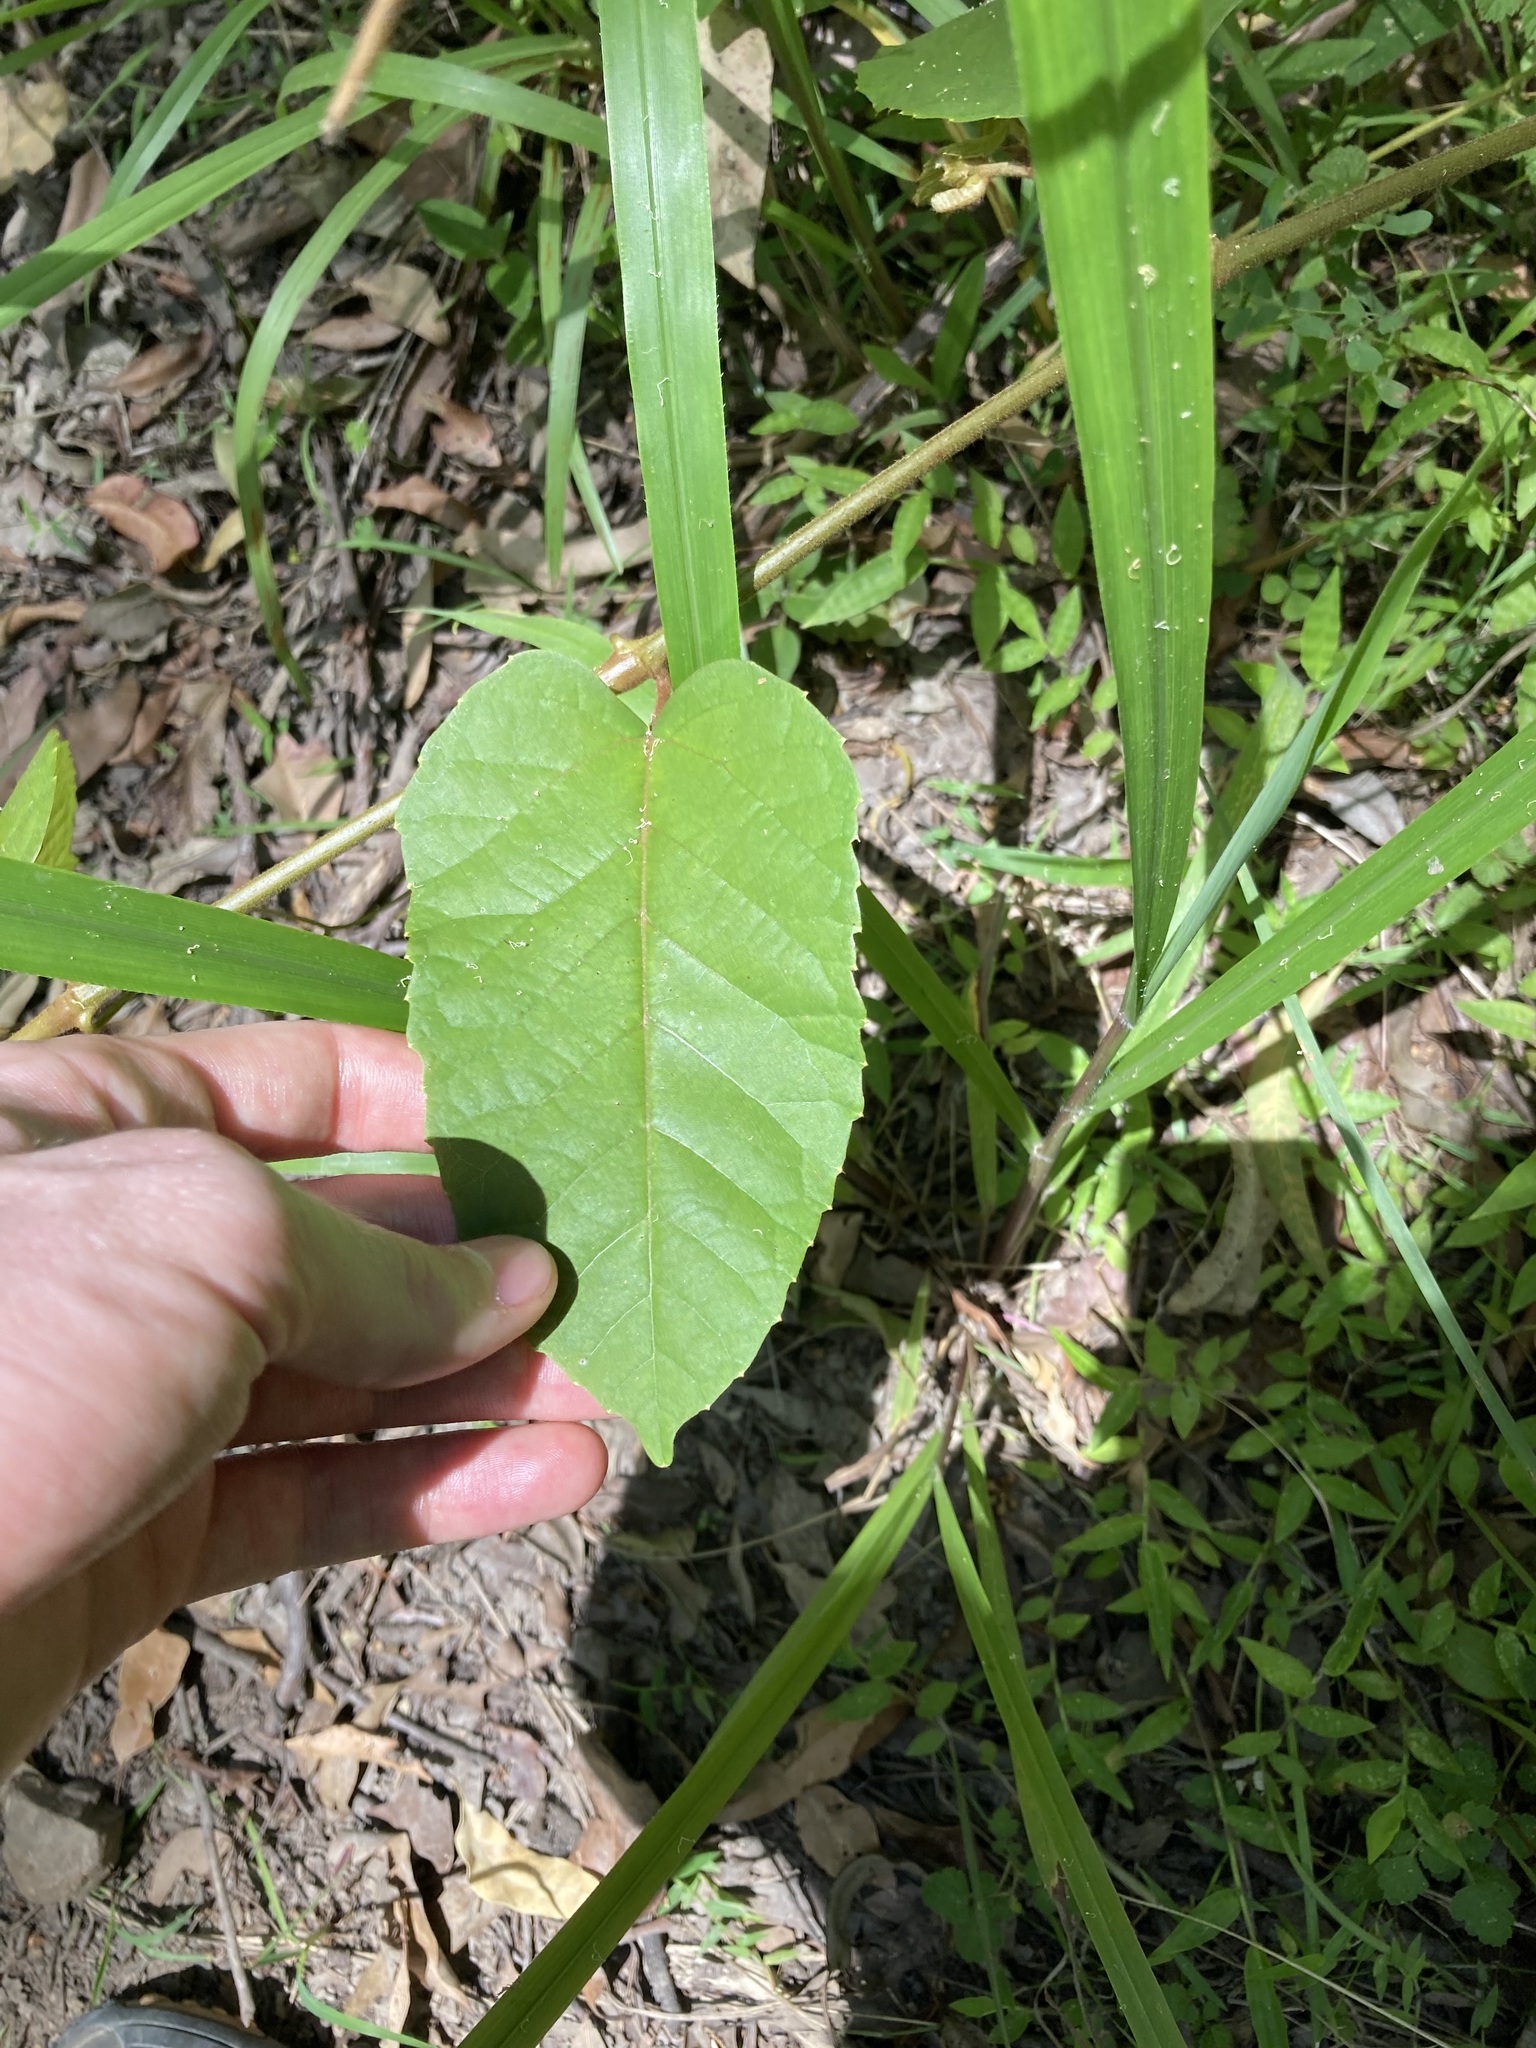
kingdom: Plantae
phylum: Tracheophyta
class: Magnoliopsida
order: Vitales
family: Vitaceae
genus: Cissus
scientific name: Cissus antarctica
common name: Kangaroo vine
